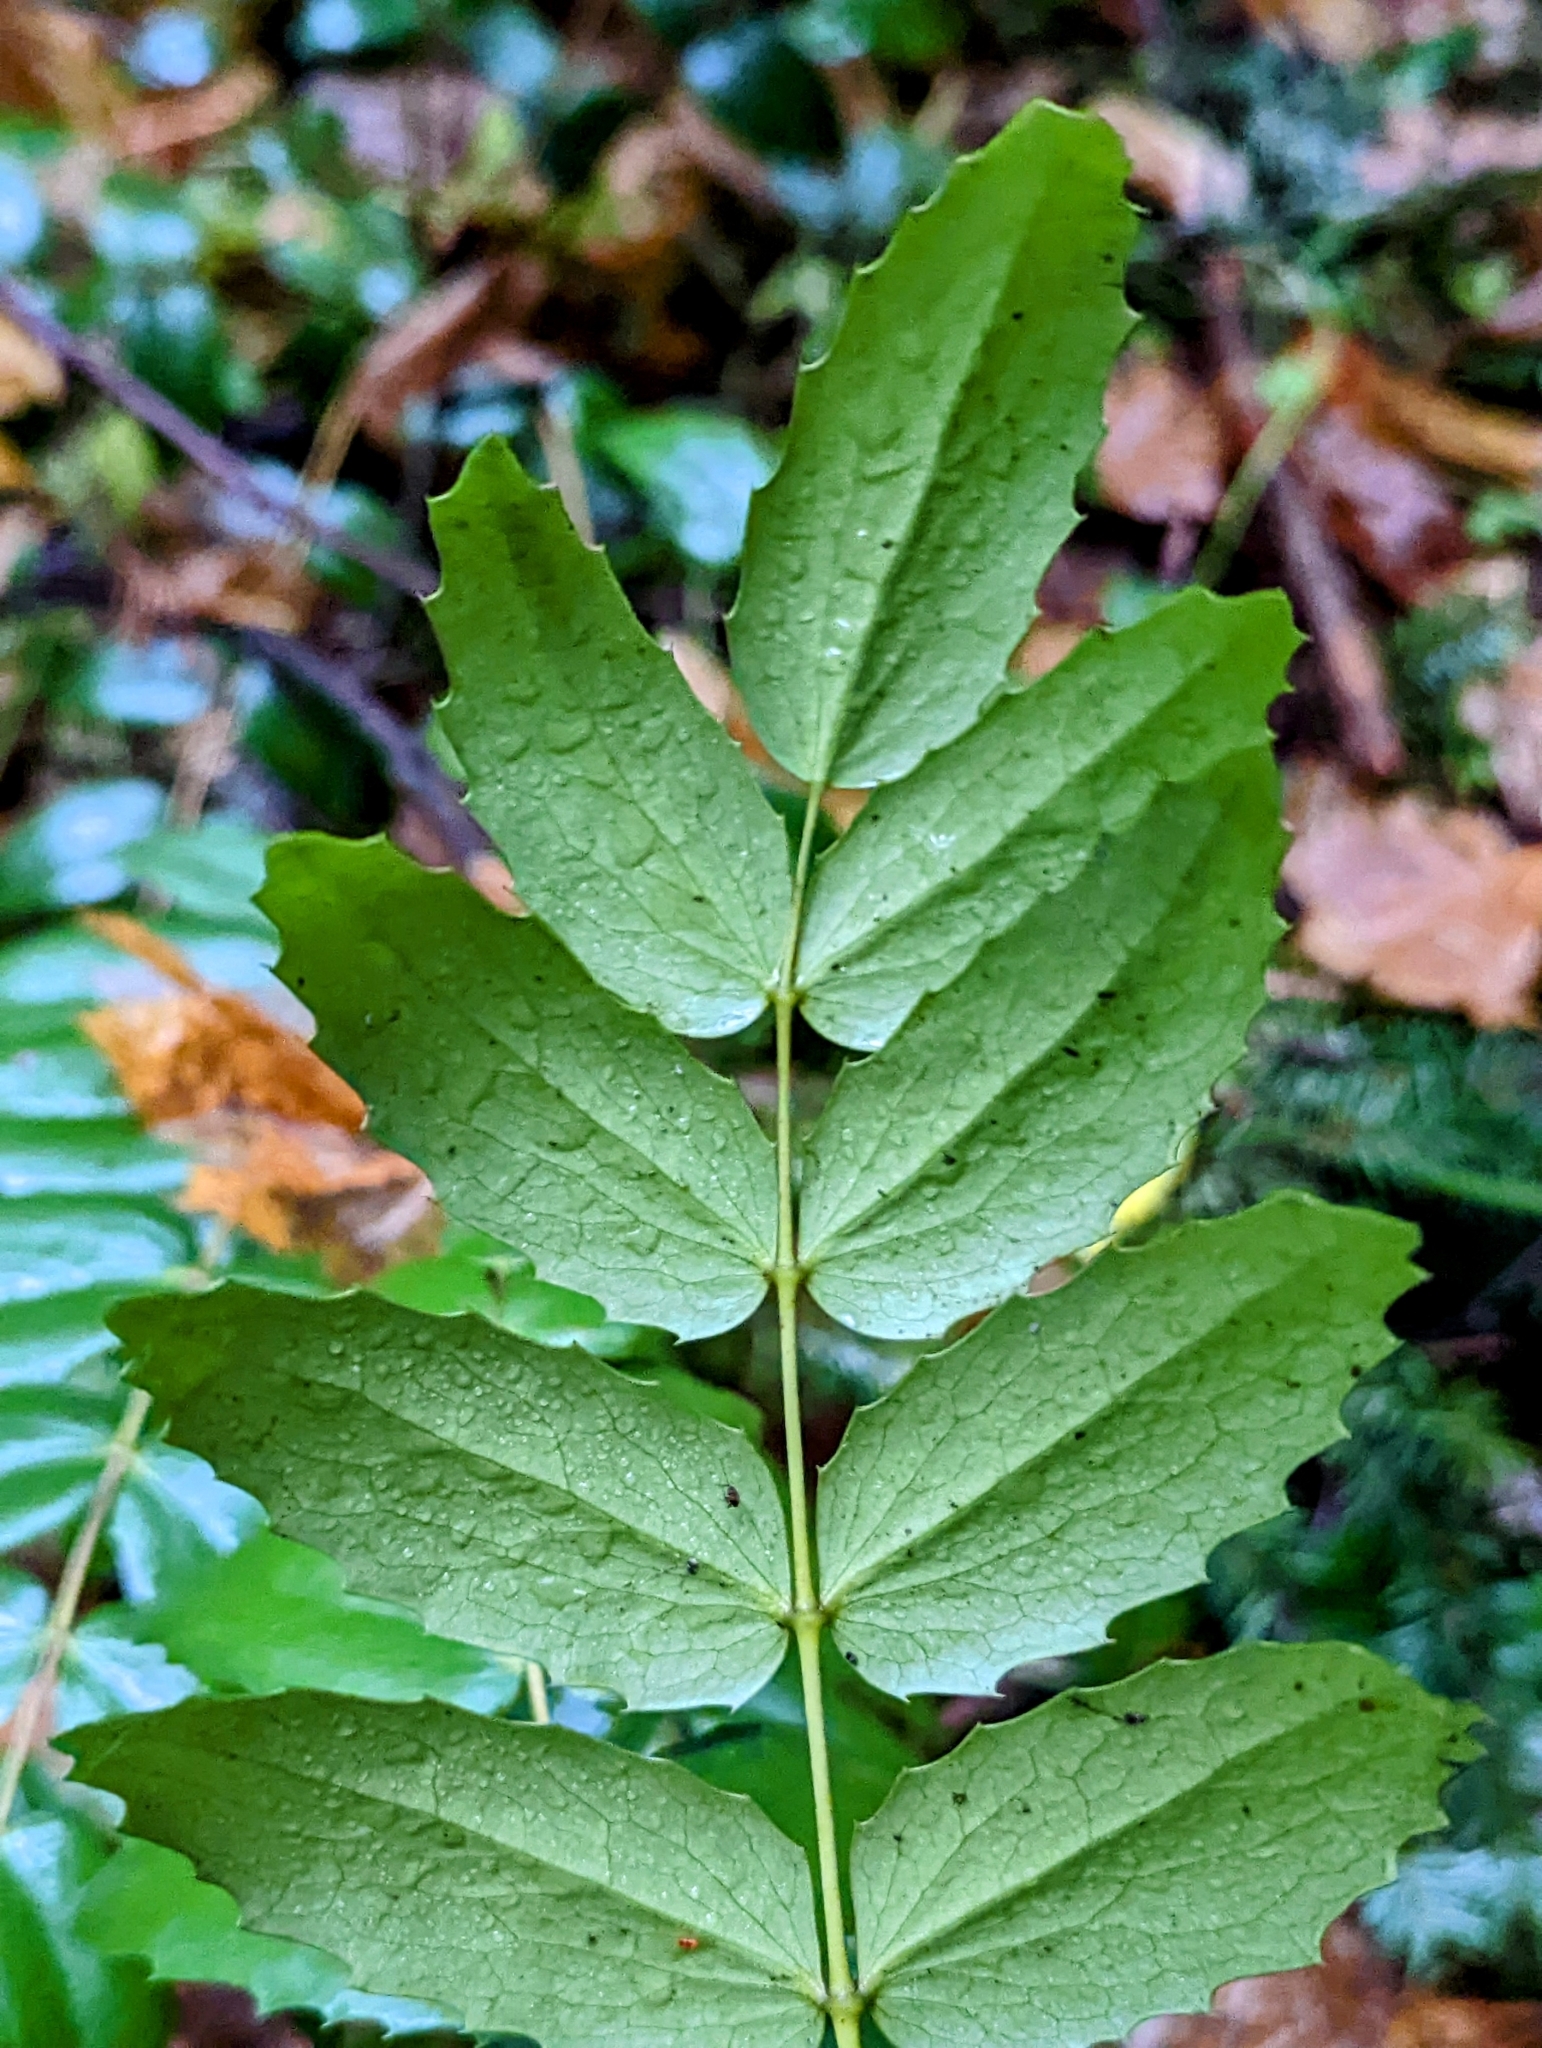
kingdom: Plantae
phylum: Tracheophyta
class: Magnoliopsida
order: Ranunculales
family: Berberidaceae
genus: Mahonia
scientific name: Mahonia nervosa
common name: Cascade oregon-grape
